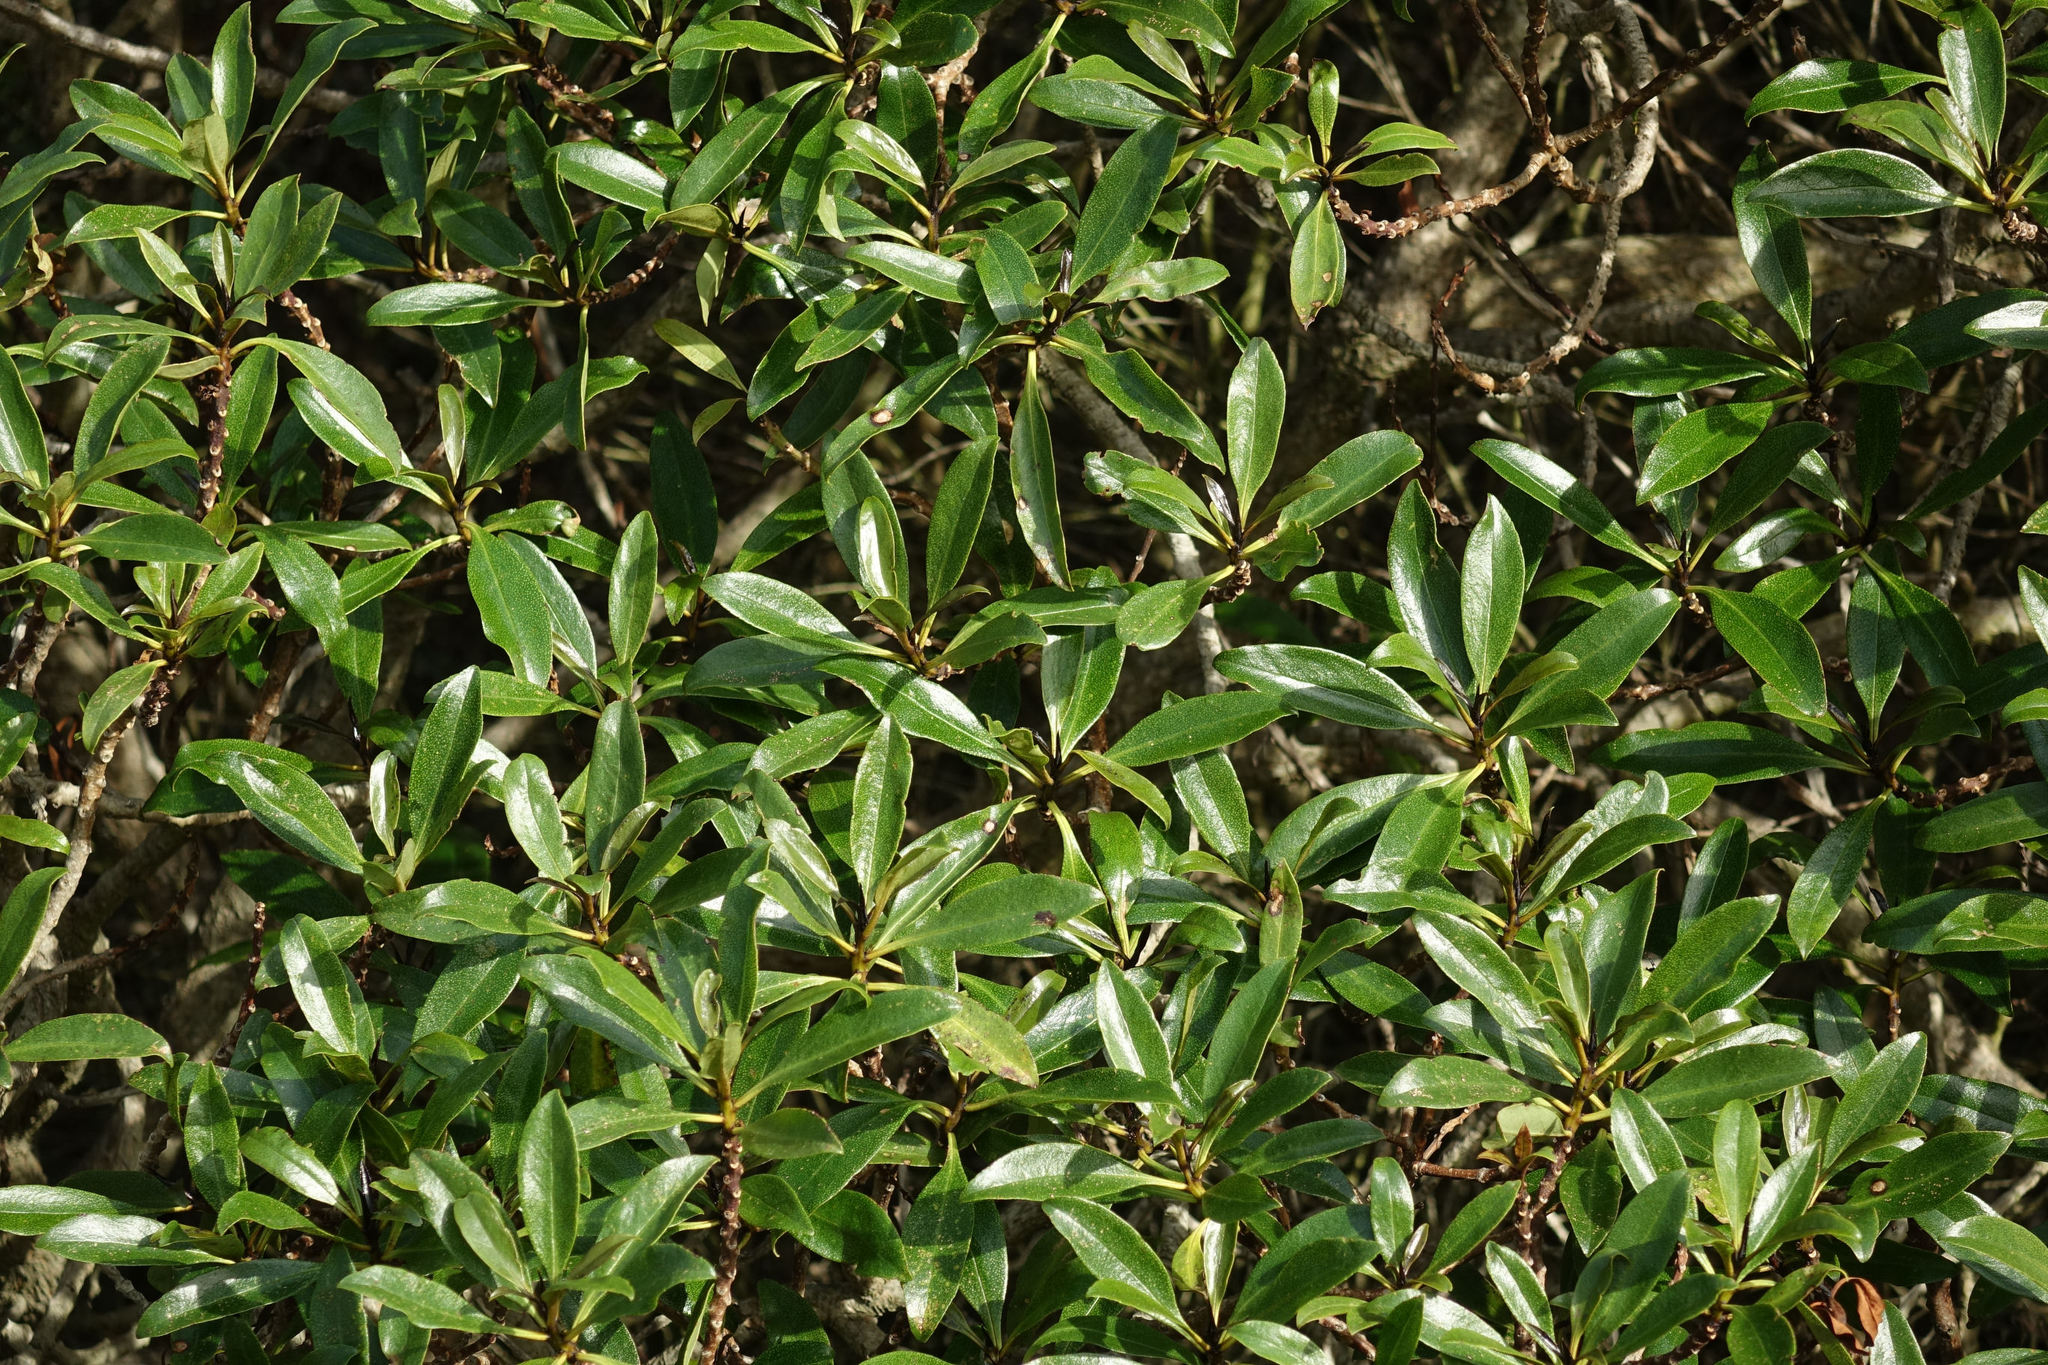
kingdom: Plantae
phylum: Tracheophyta
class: Magnoliopsida
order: Lamiales
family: Scrophulariaceae
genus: Myoporum
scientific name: Myoporum laetum
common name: Ngaio tree
